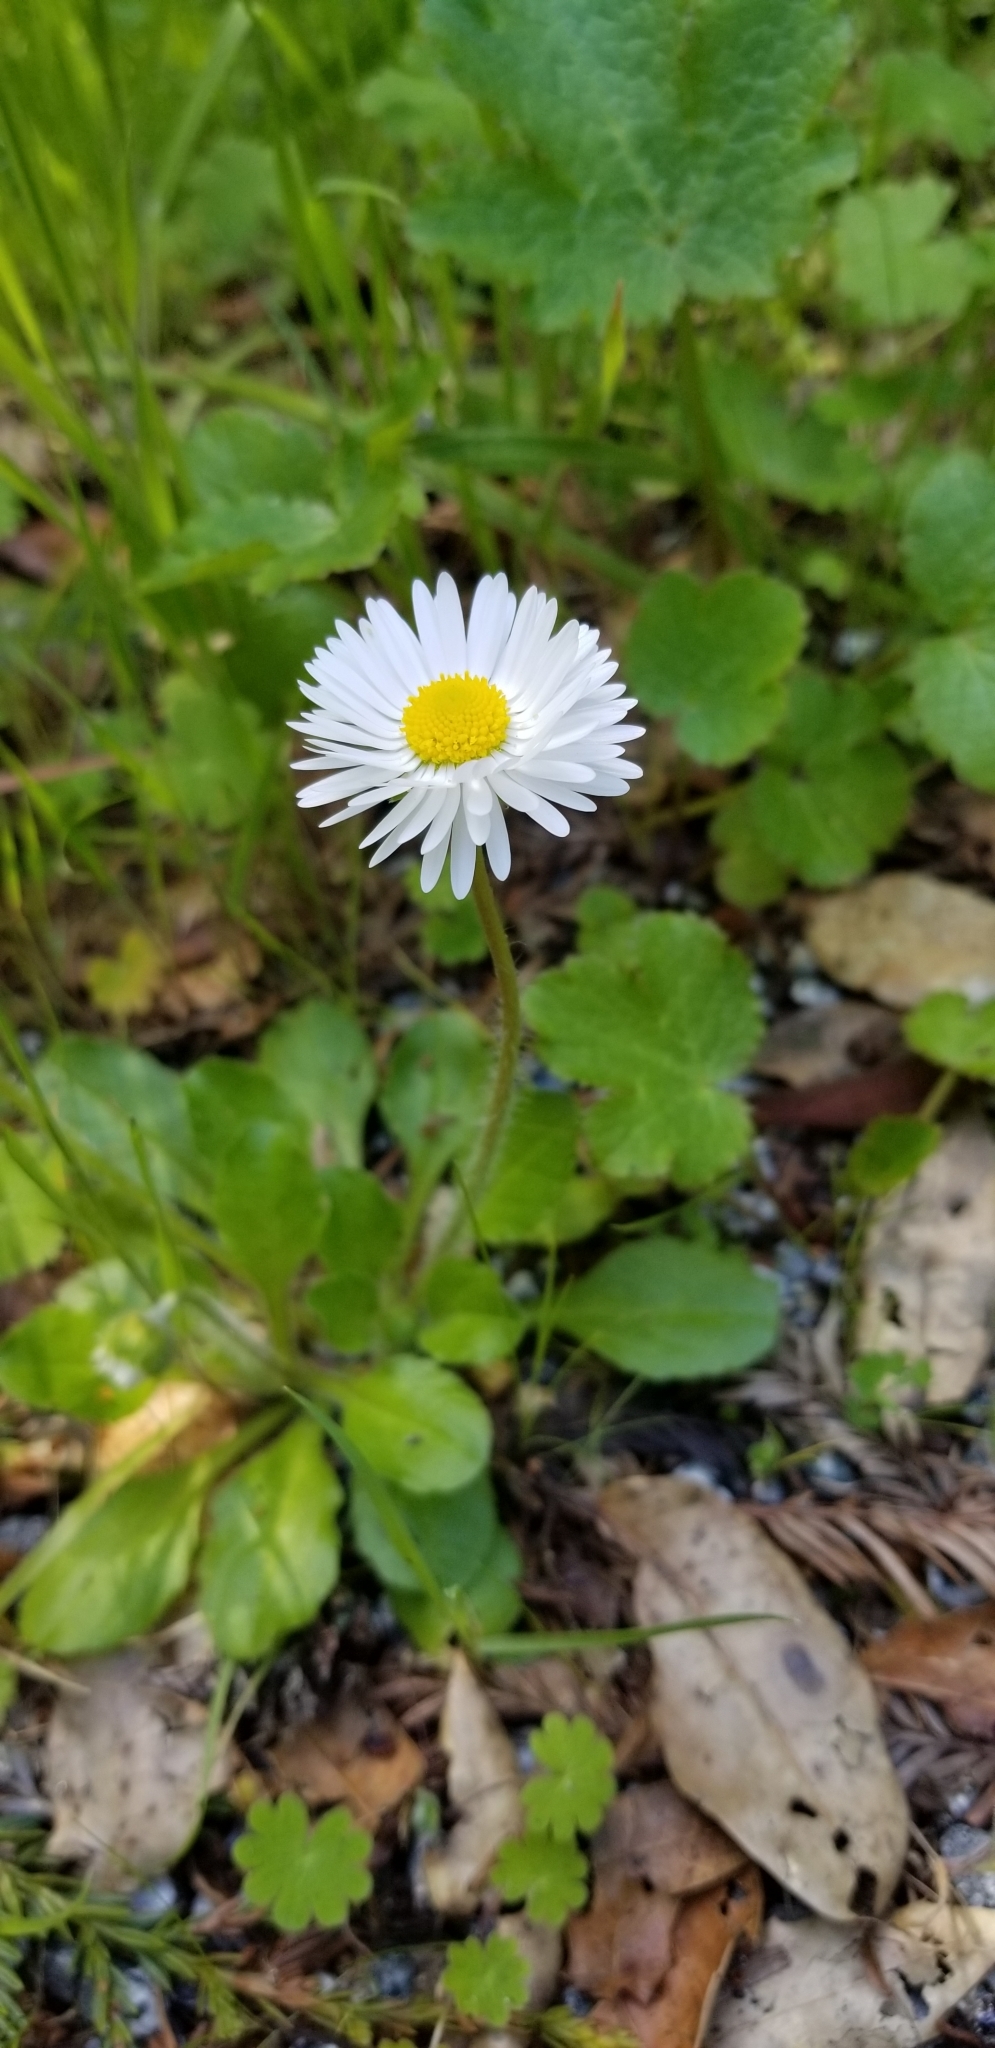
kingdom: Plantae
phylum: Tracheophyta
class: Magnoliopsida
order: Asterales
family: Asteraceae
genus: Bellis
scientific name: Bellis perennis
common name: Lawndaisy
